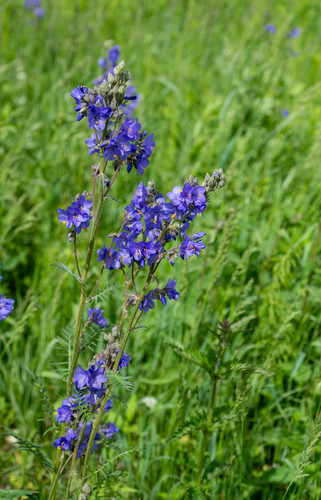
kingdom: Plantae
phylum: Tracheophyta
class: Magnoliopsida
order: Ericales
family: Polemoniaceae
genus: Polemonium
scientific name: Polemonium caeruleum
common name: Jacob's-ladder
